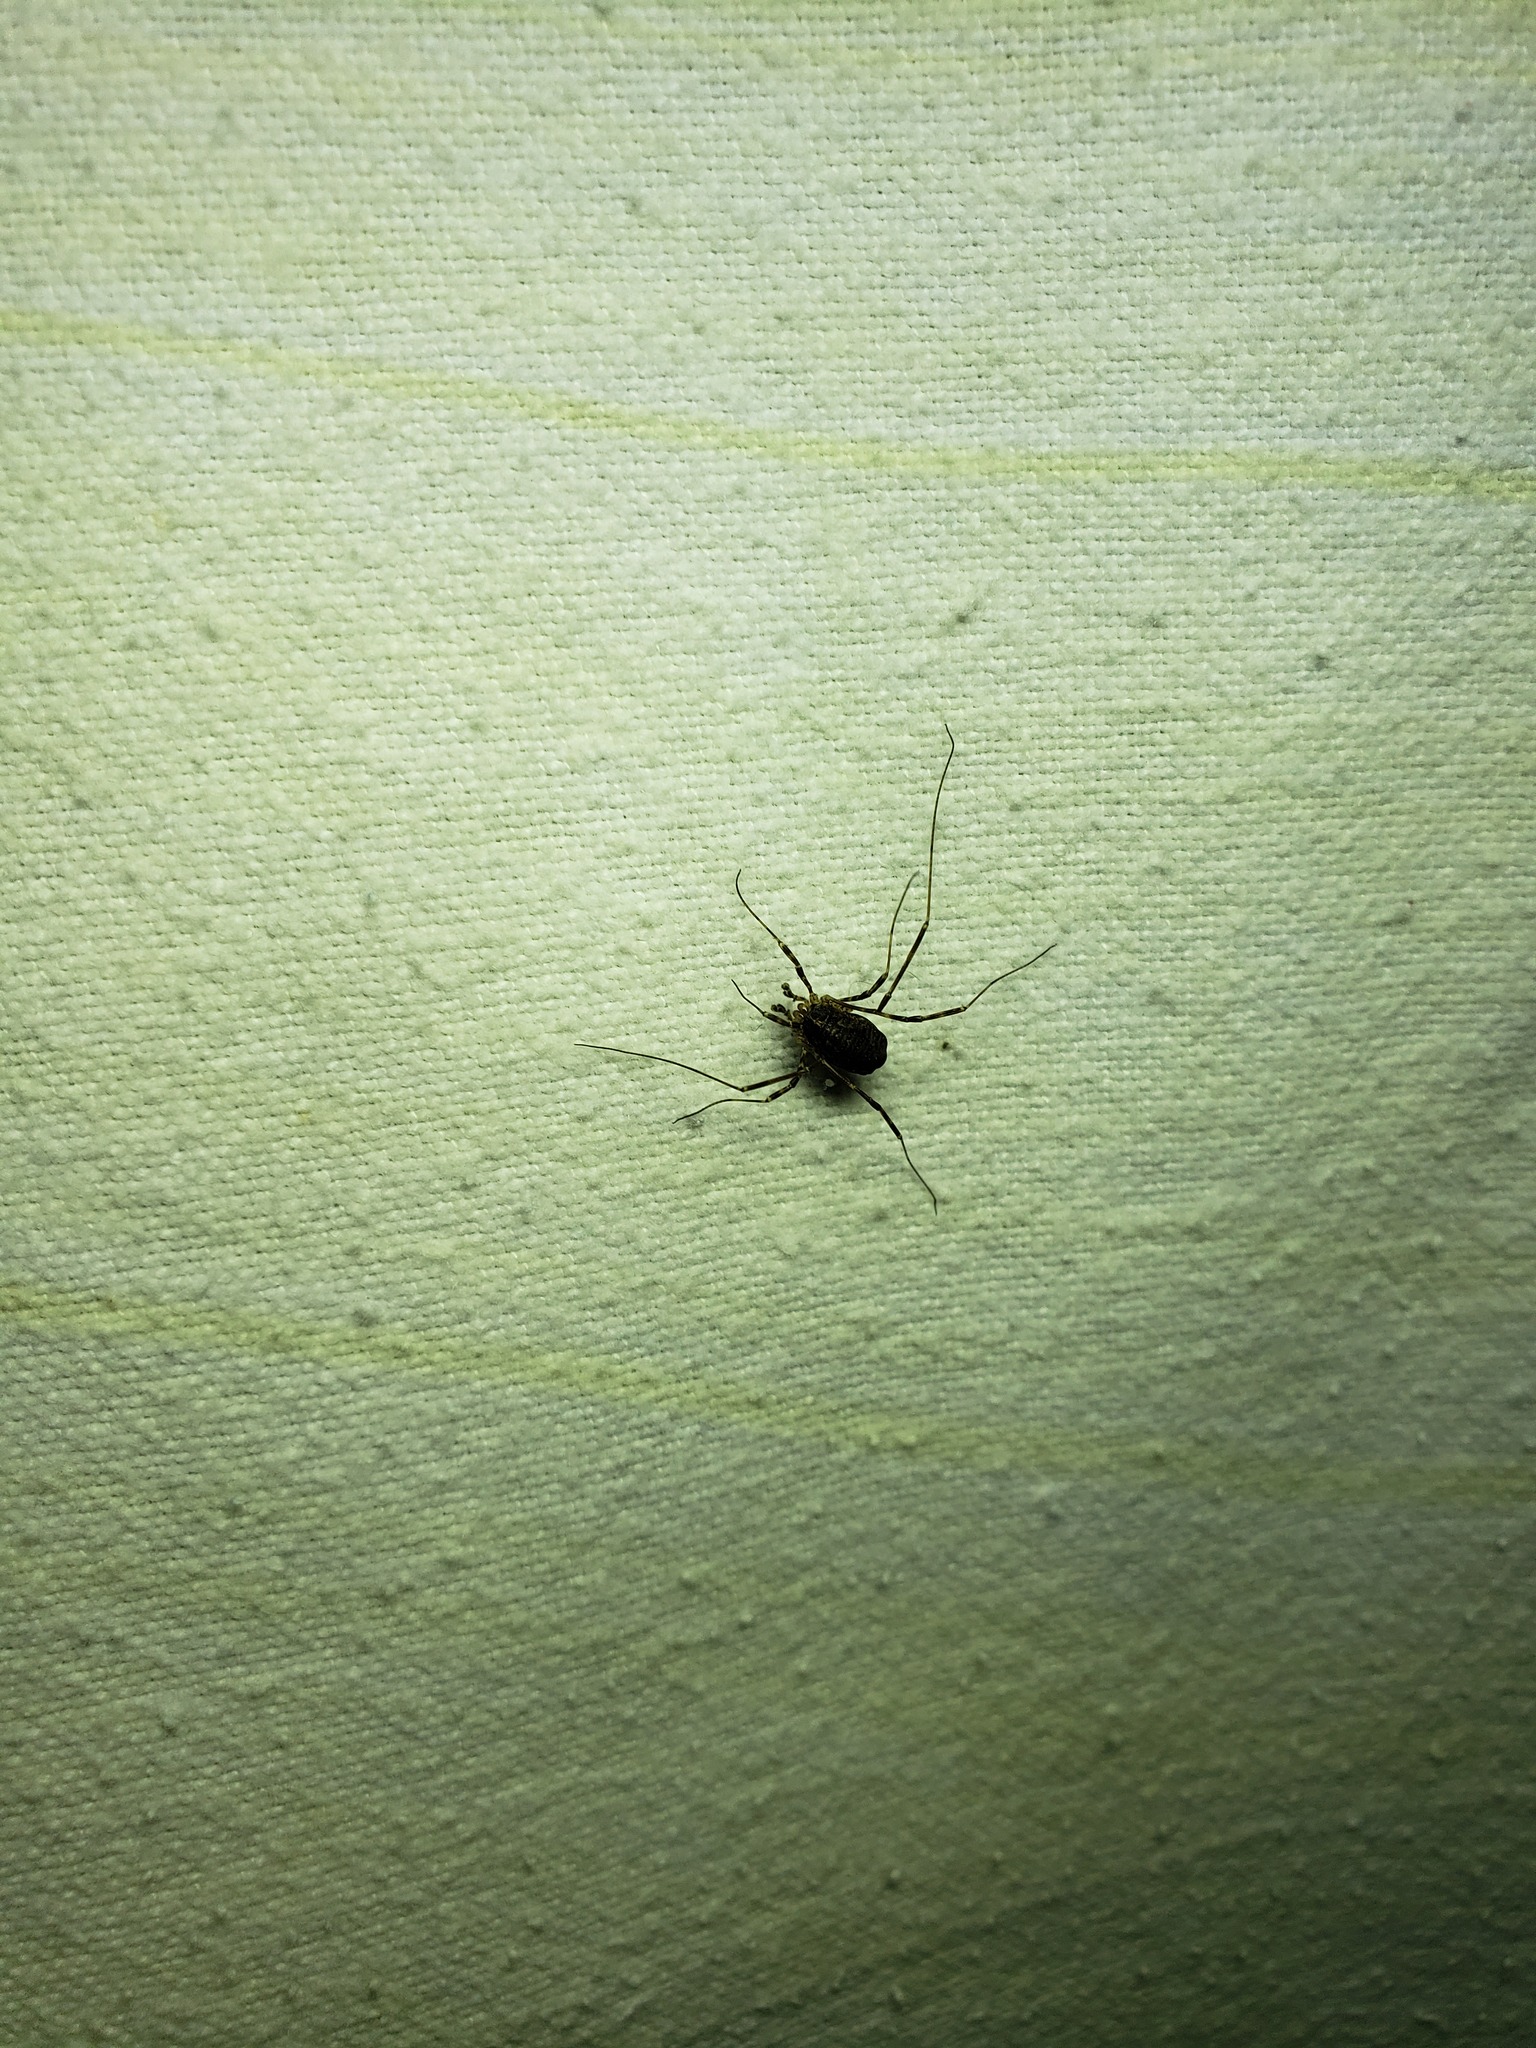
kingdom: Animalia
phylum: Arthropoda
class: Arachnida
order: Opiliones
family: Phalangiidae
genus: Odiellus
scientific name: Odiellus pictus
